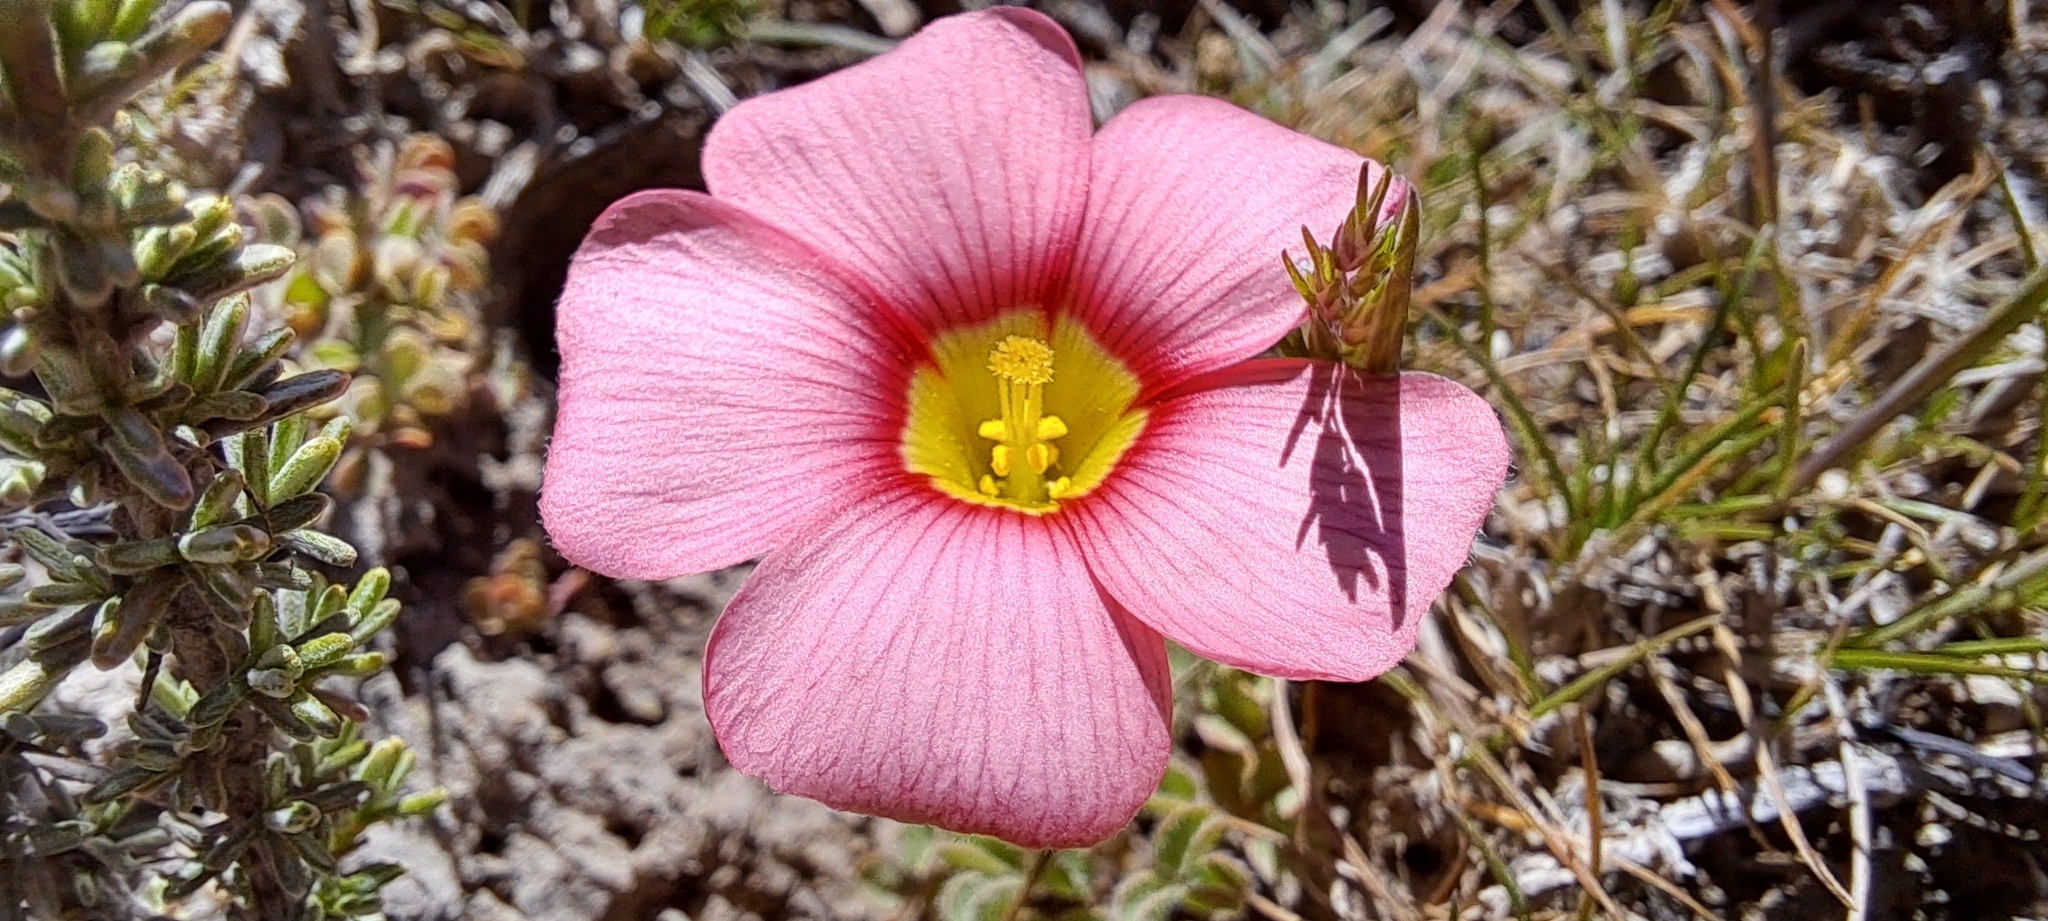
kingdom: Plantae
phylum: Tracheophyta
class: Magnoliopsida
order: Oxalidales
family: Oxalidaceae
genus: Oxalis
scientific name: Oxalis obtusa
